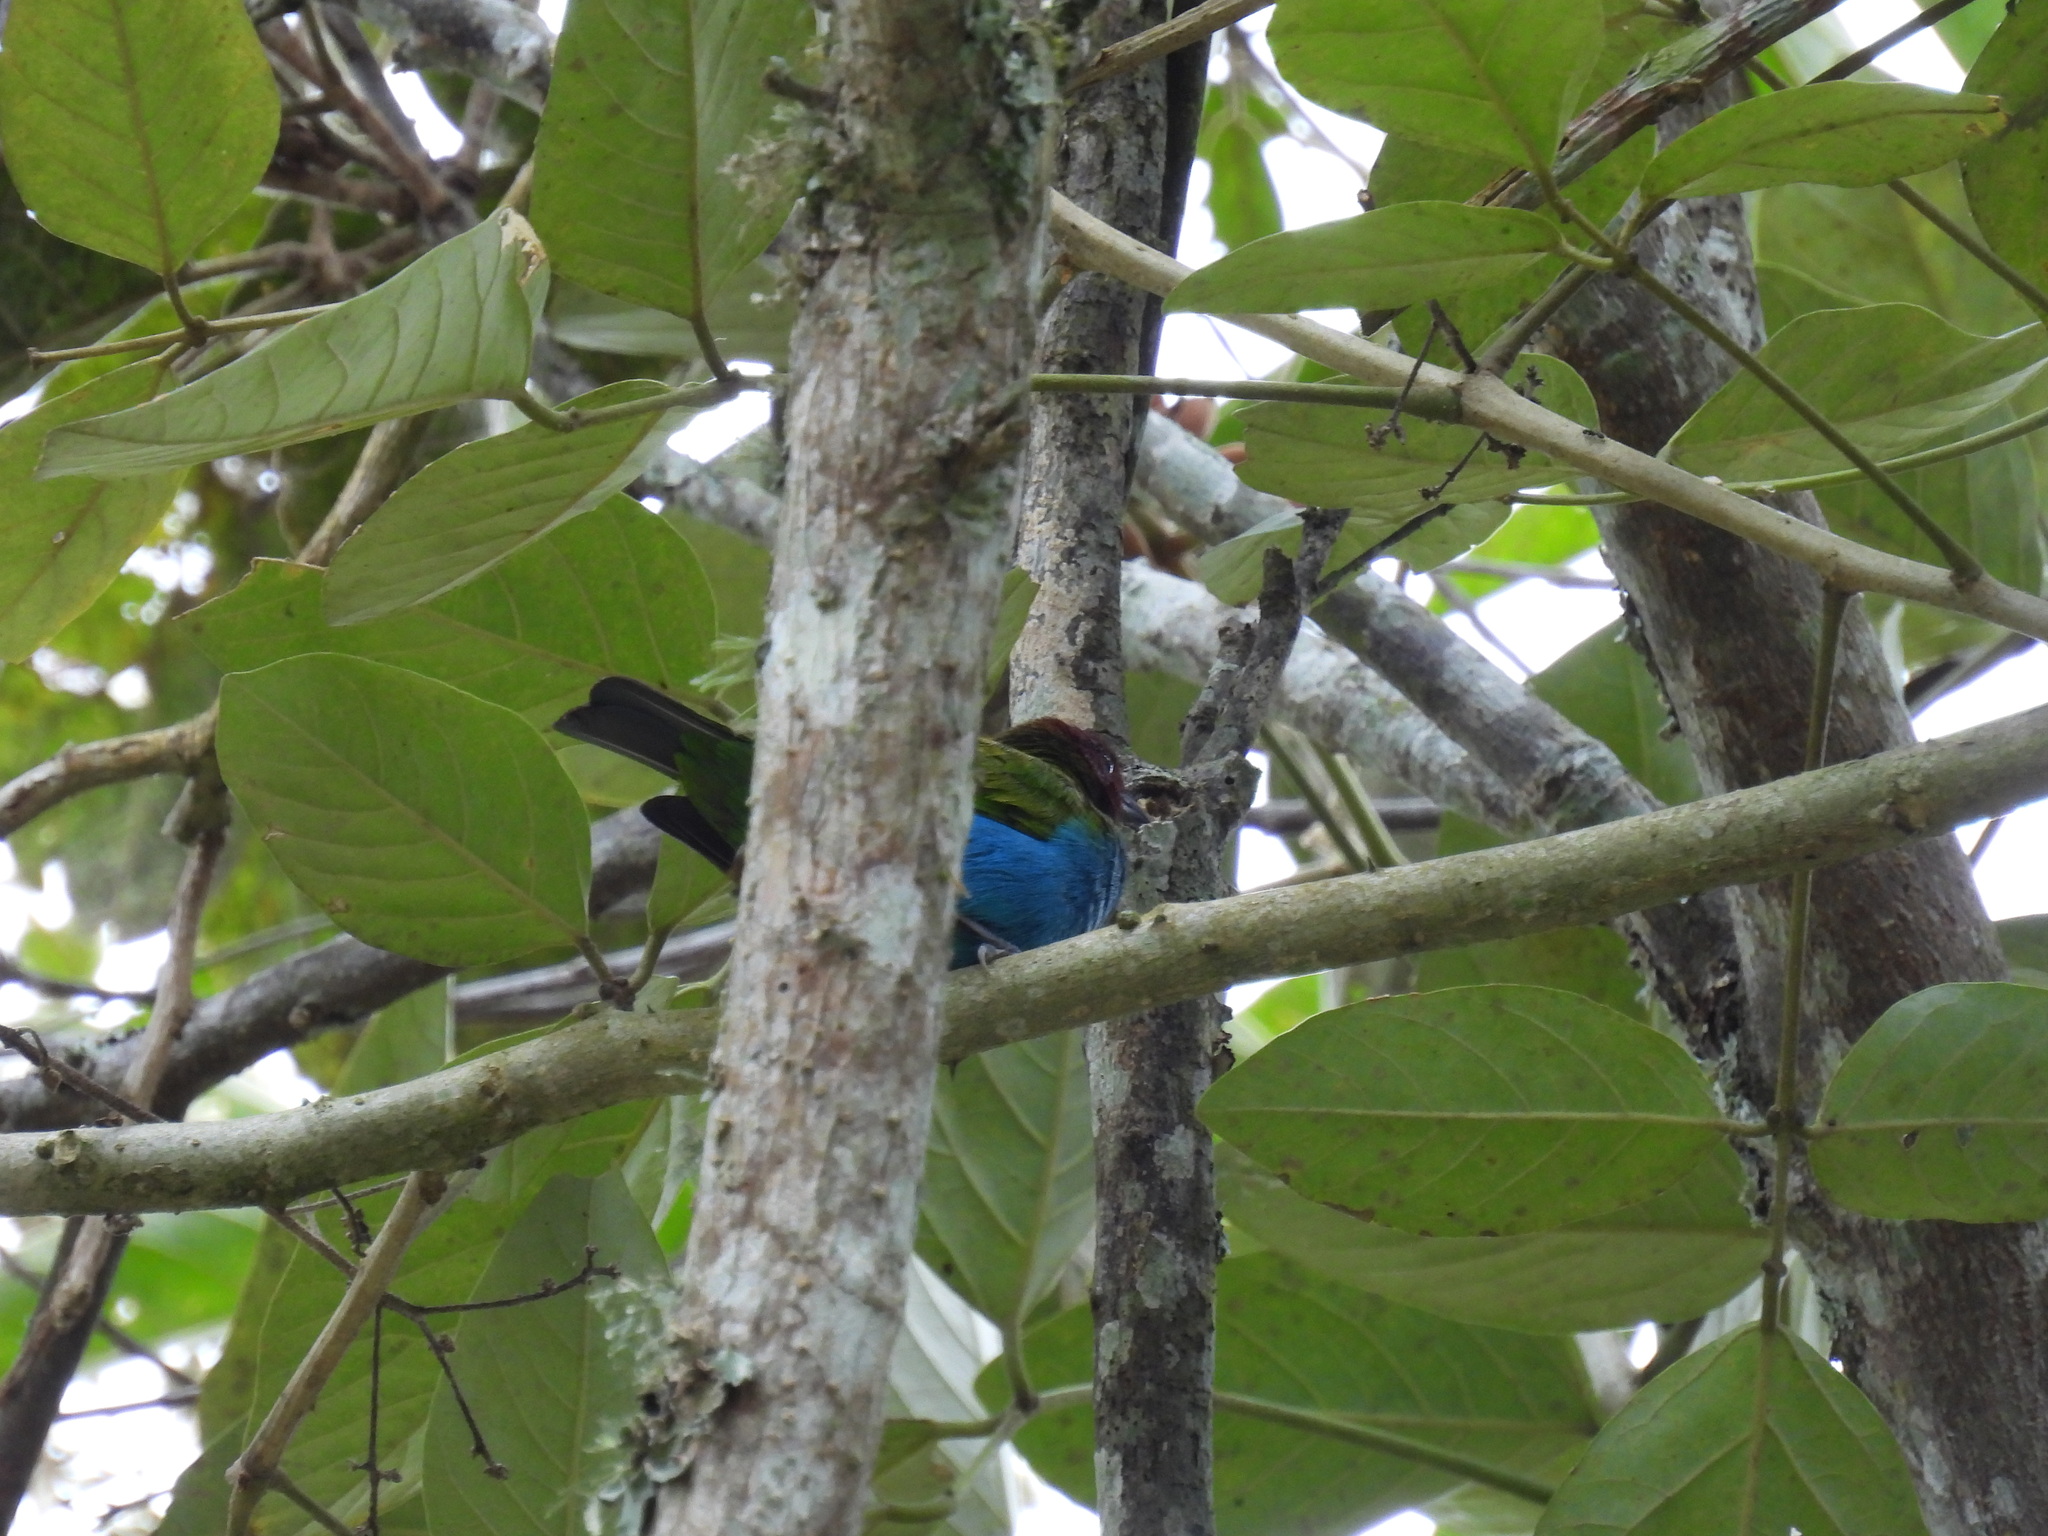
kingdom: Animalia
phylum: Chordata
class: Aves
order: Passeriformes
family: Thraupidae
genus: Tangara
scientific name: Tangara gyrola
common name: Bay-headed tanager
